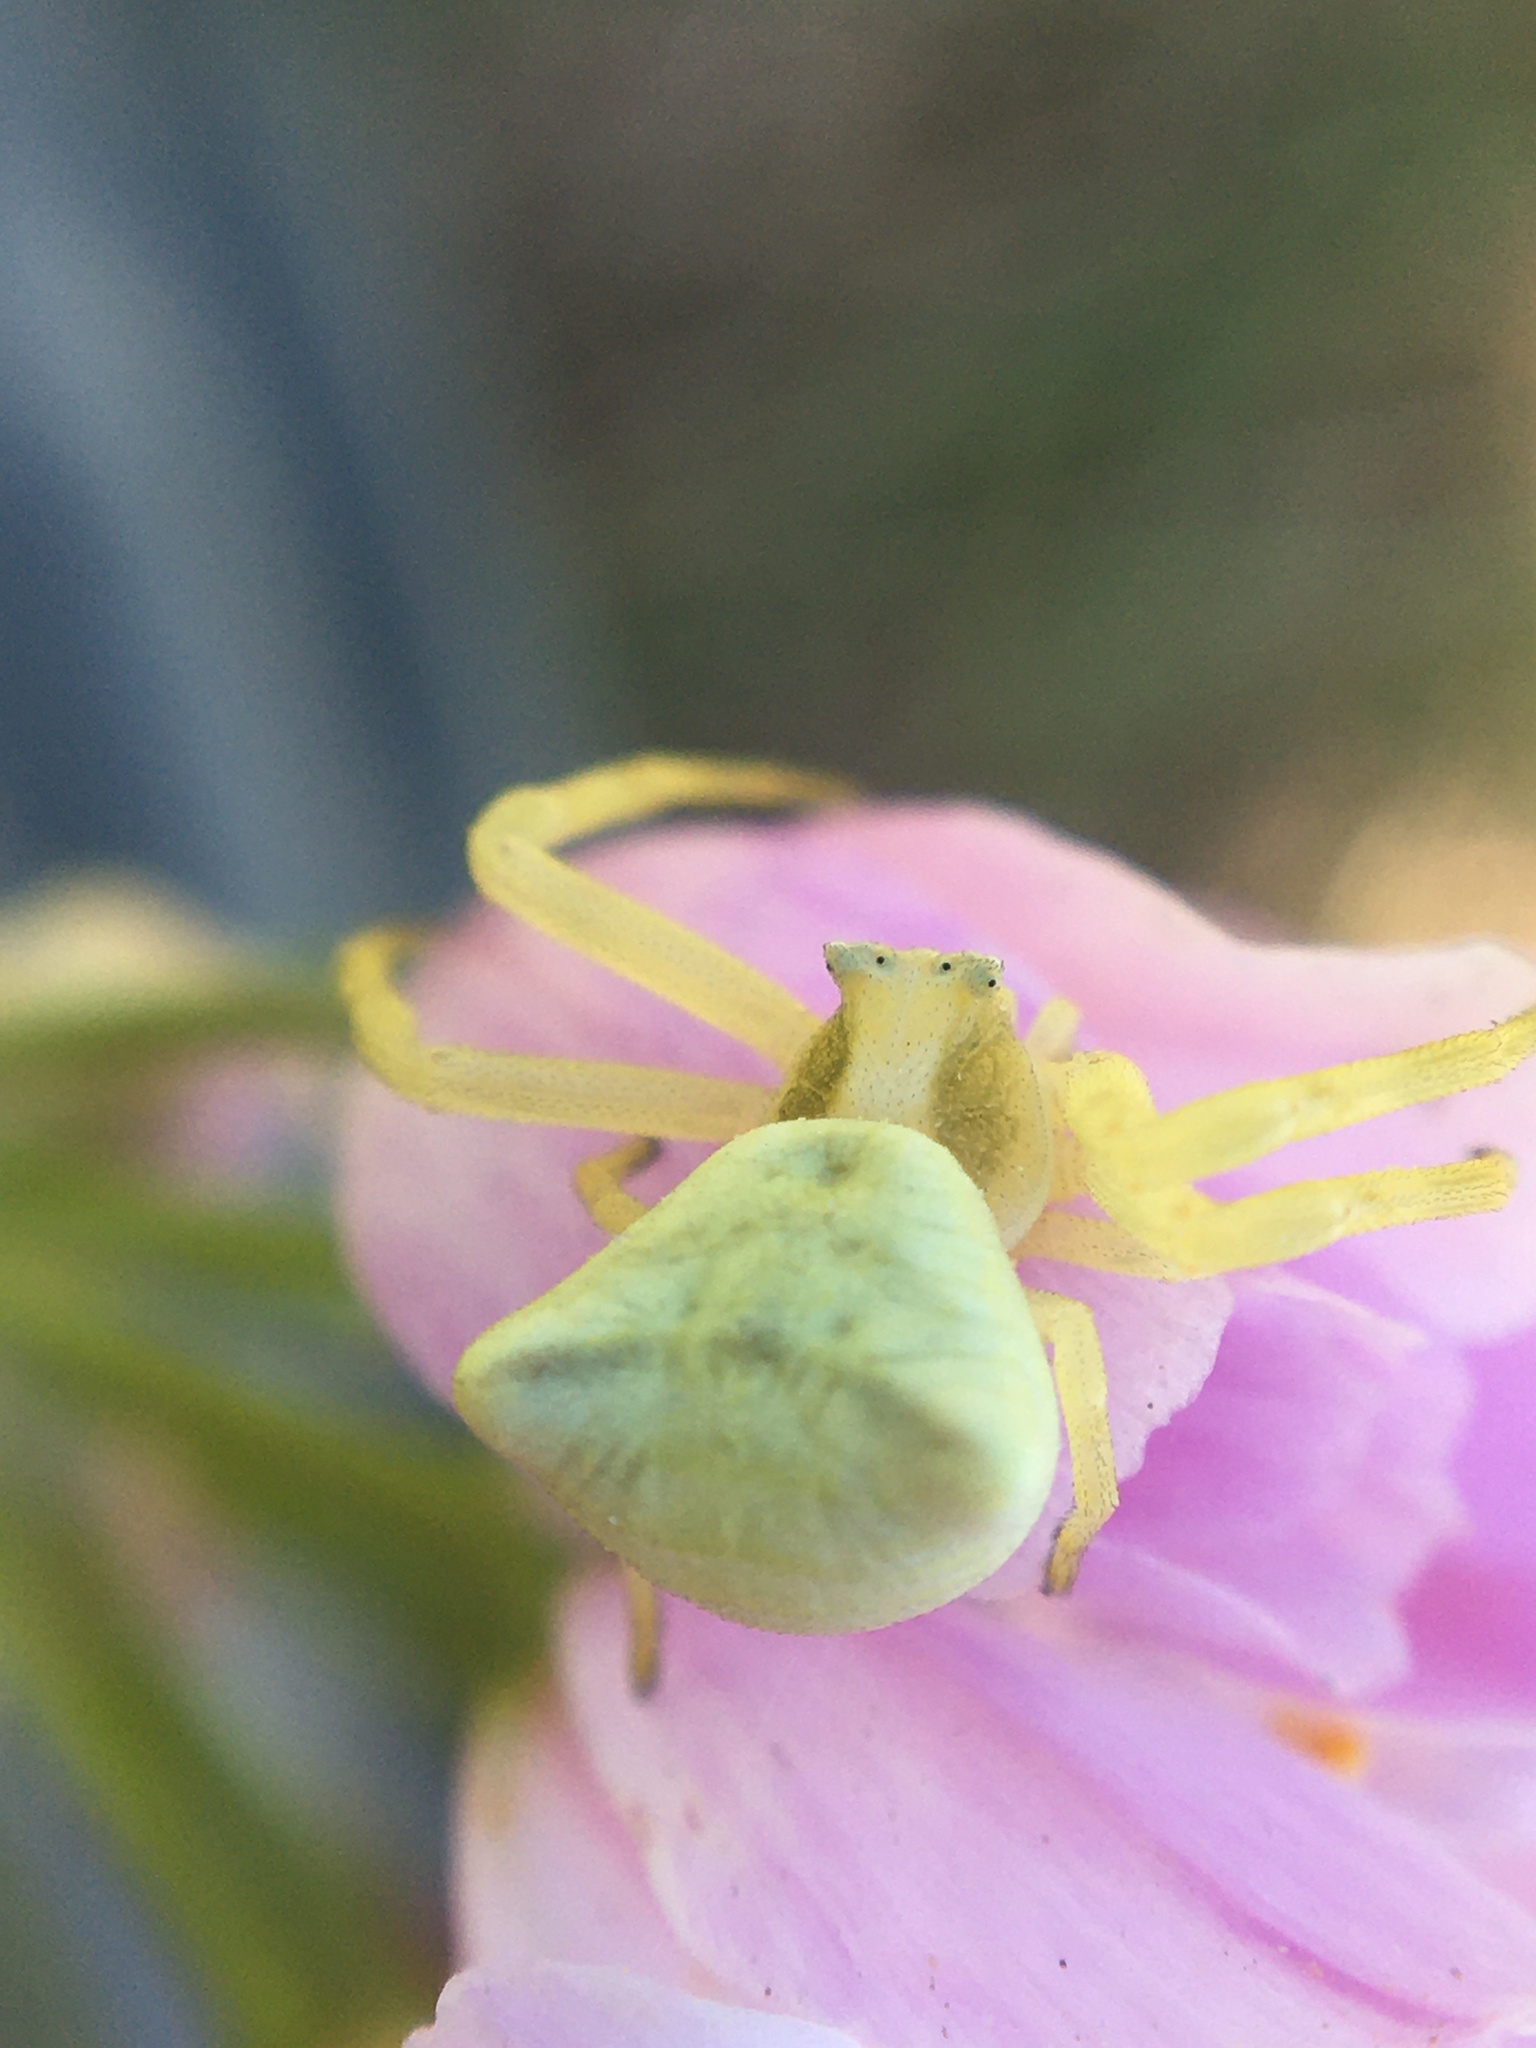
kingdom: Animalia
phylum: Arthropoda
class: Arachnida
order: Araneae
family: Thomisidae
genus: Thomisus
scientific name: Thomisus onustus
